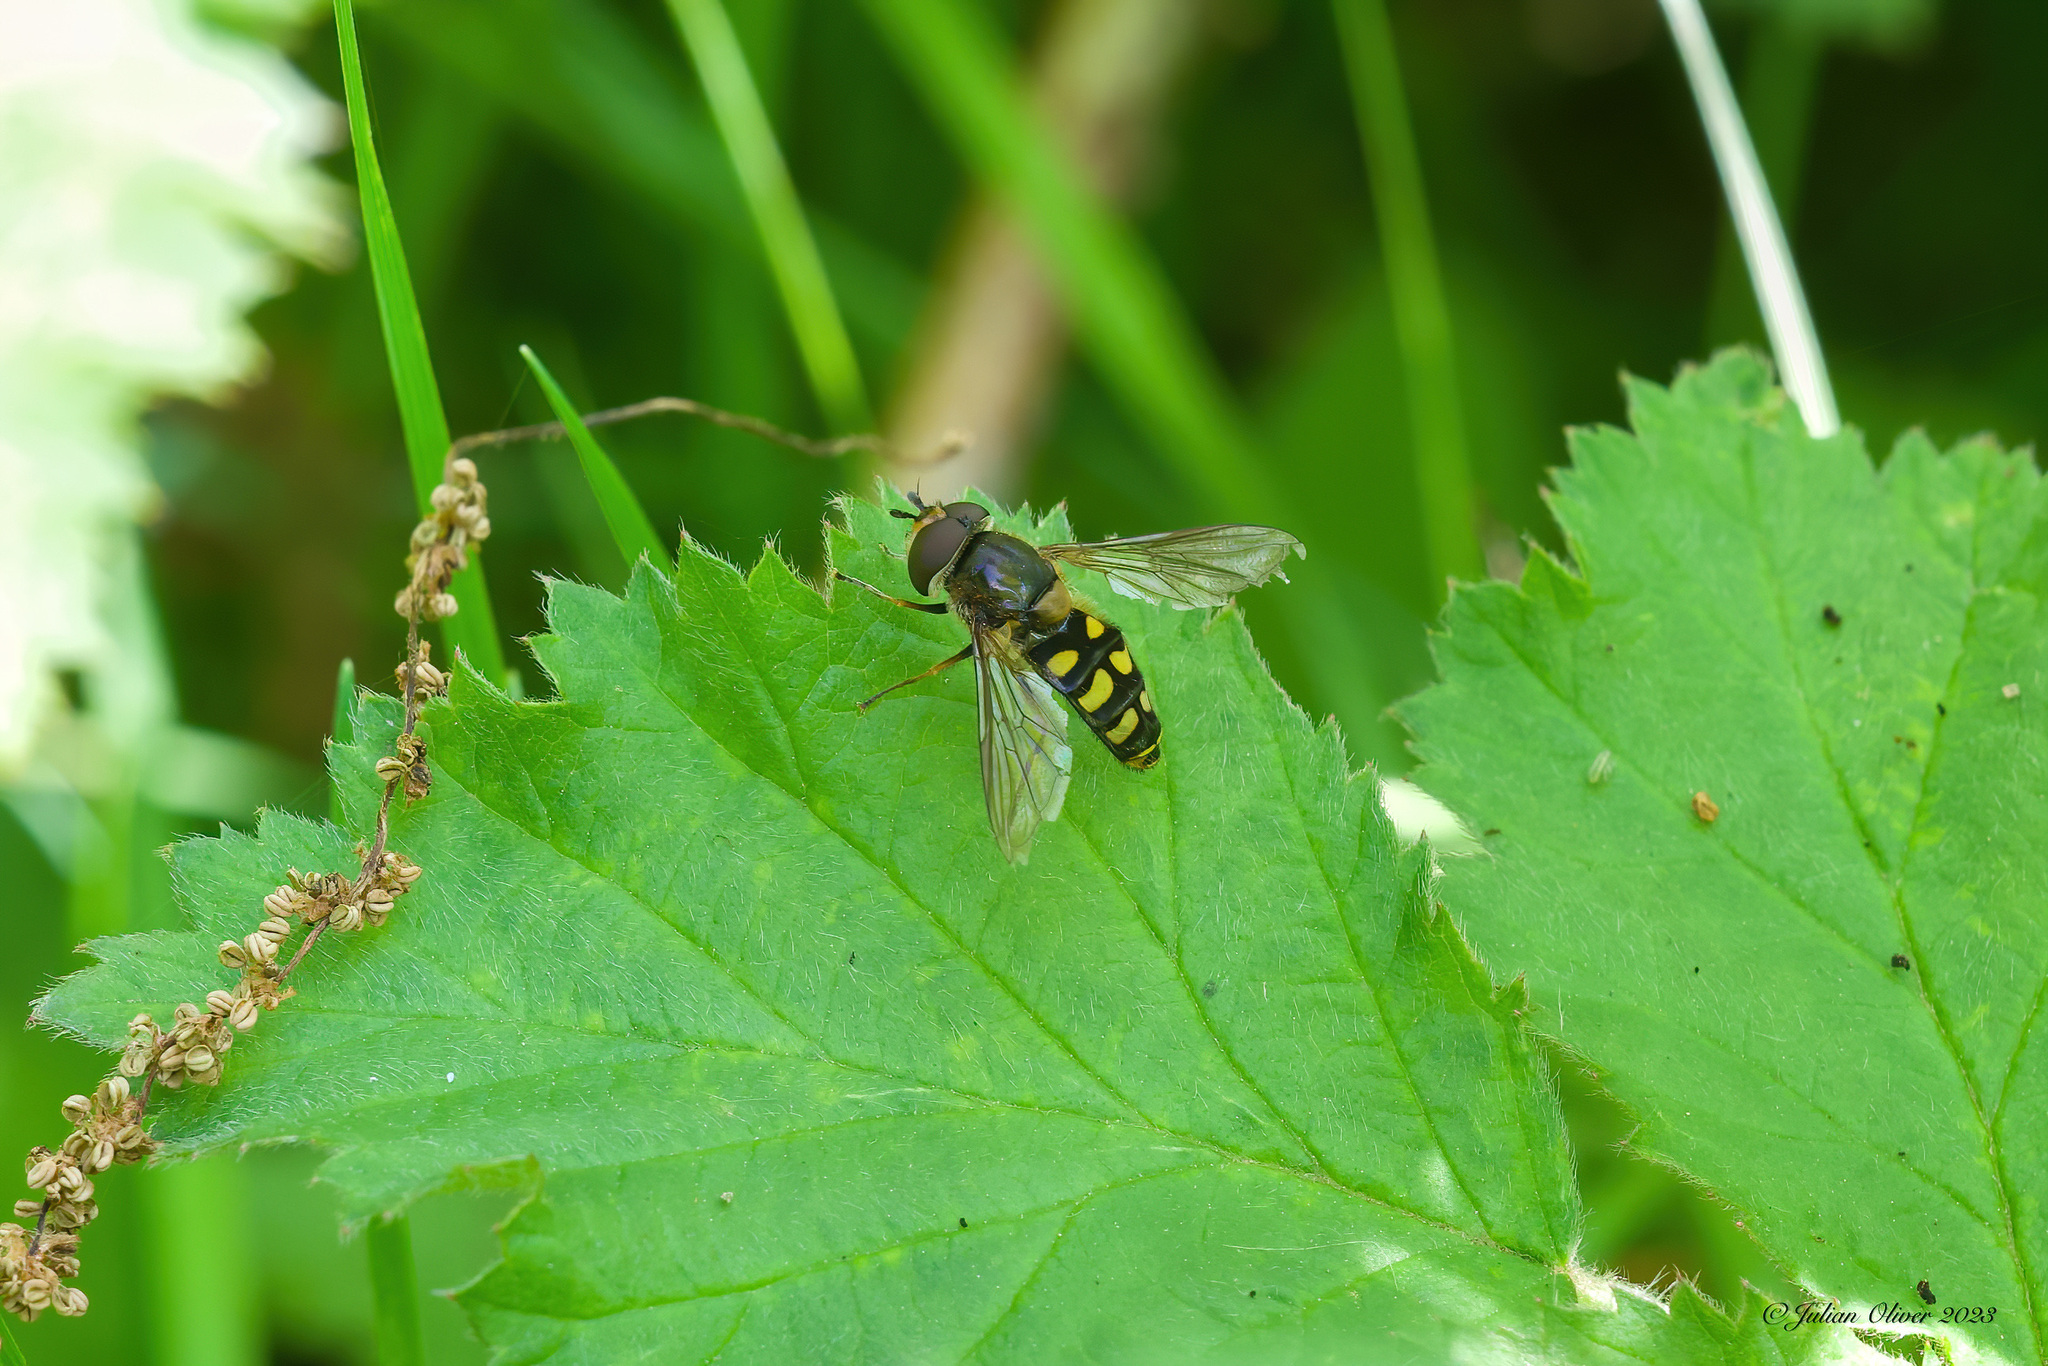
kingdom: Animalia
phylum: Arthropoda
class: Insecta
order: Diptera
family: Syrphidae
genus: Eupeodes
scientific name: Eupeodes
